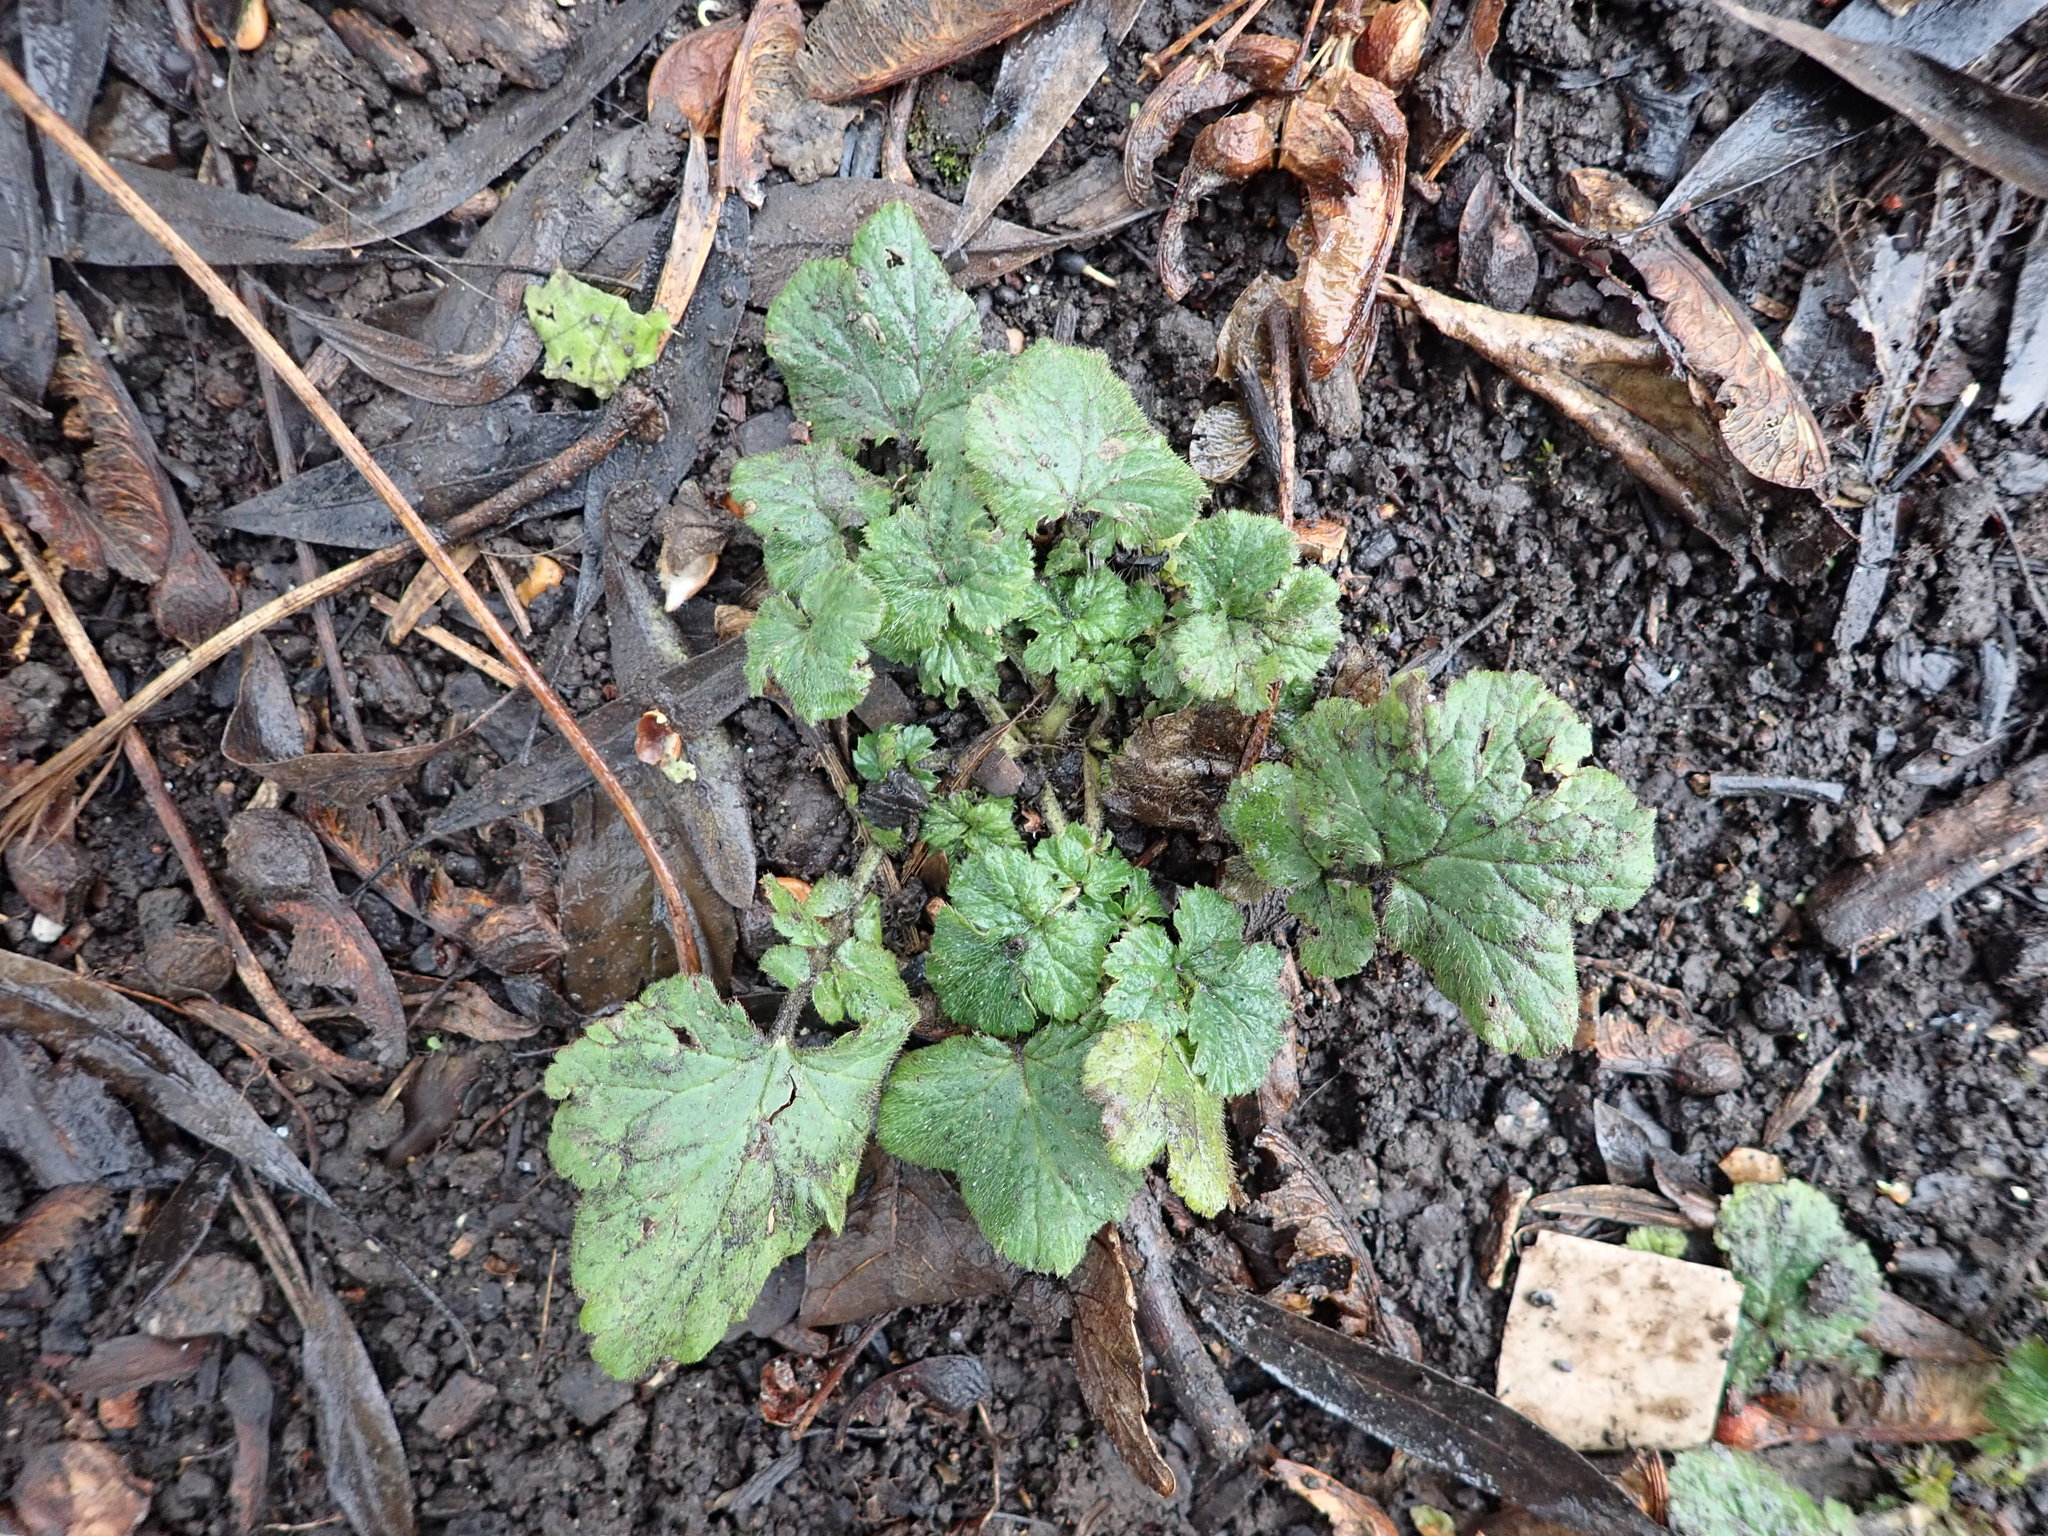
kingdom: Plantae
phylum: Tracheophyta
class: Magnoliopsida
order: Rosales
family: Rosaceae
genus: Geum
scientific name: Geum urbanum
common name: Wood avens
